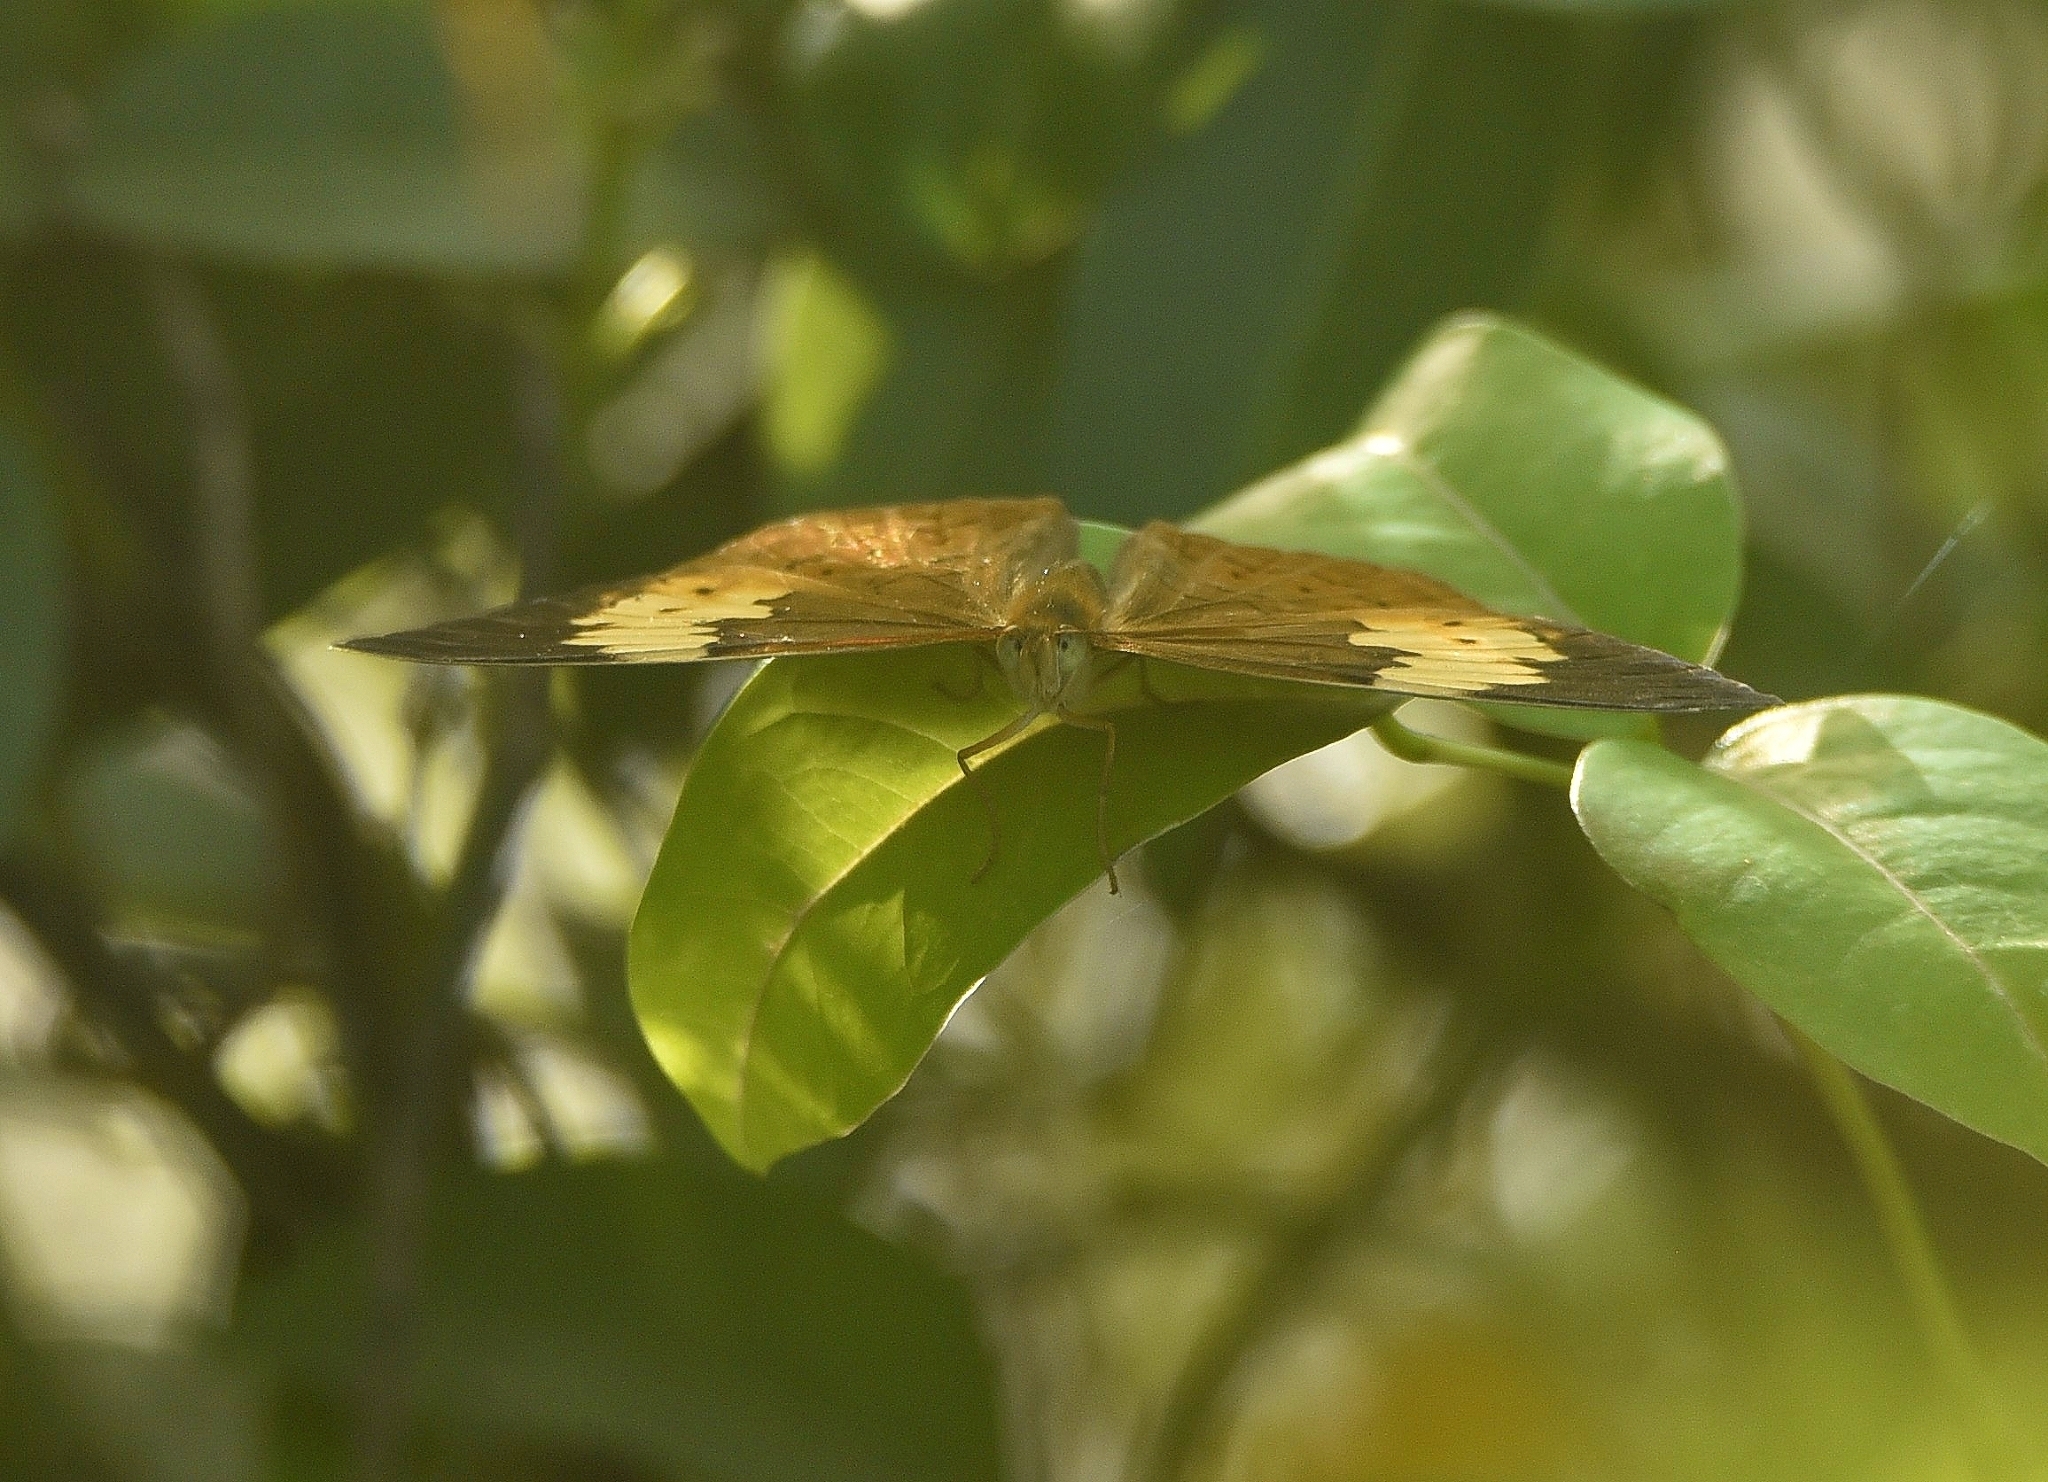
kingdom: Animalia
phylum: Arthropoda
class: Insecta
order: Lepidoptera
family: Nymphalidae
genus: Cupha
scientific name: Cupha erymanthis
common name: Rustic
